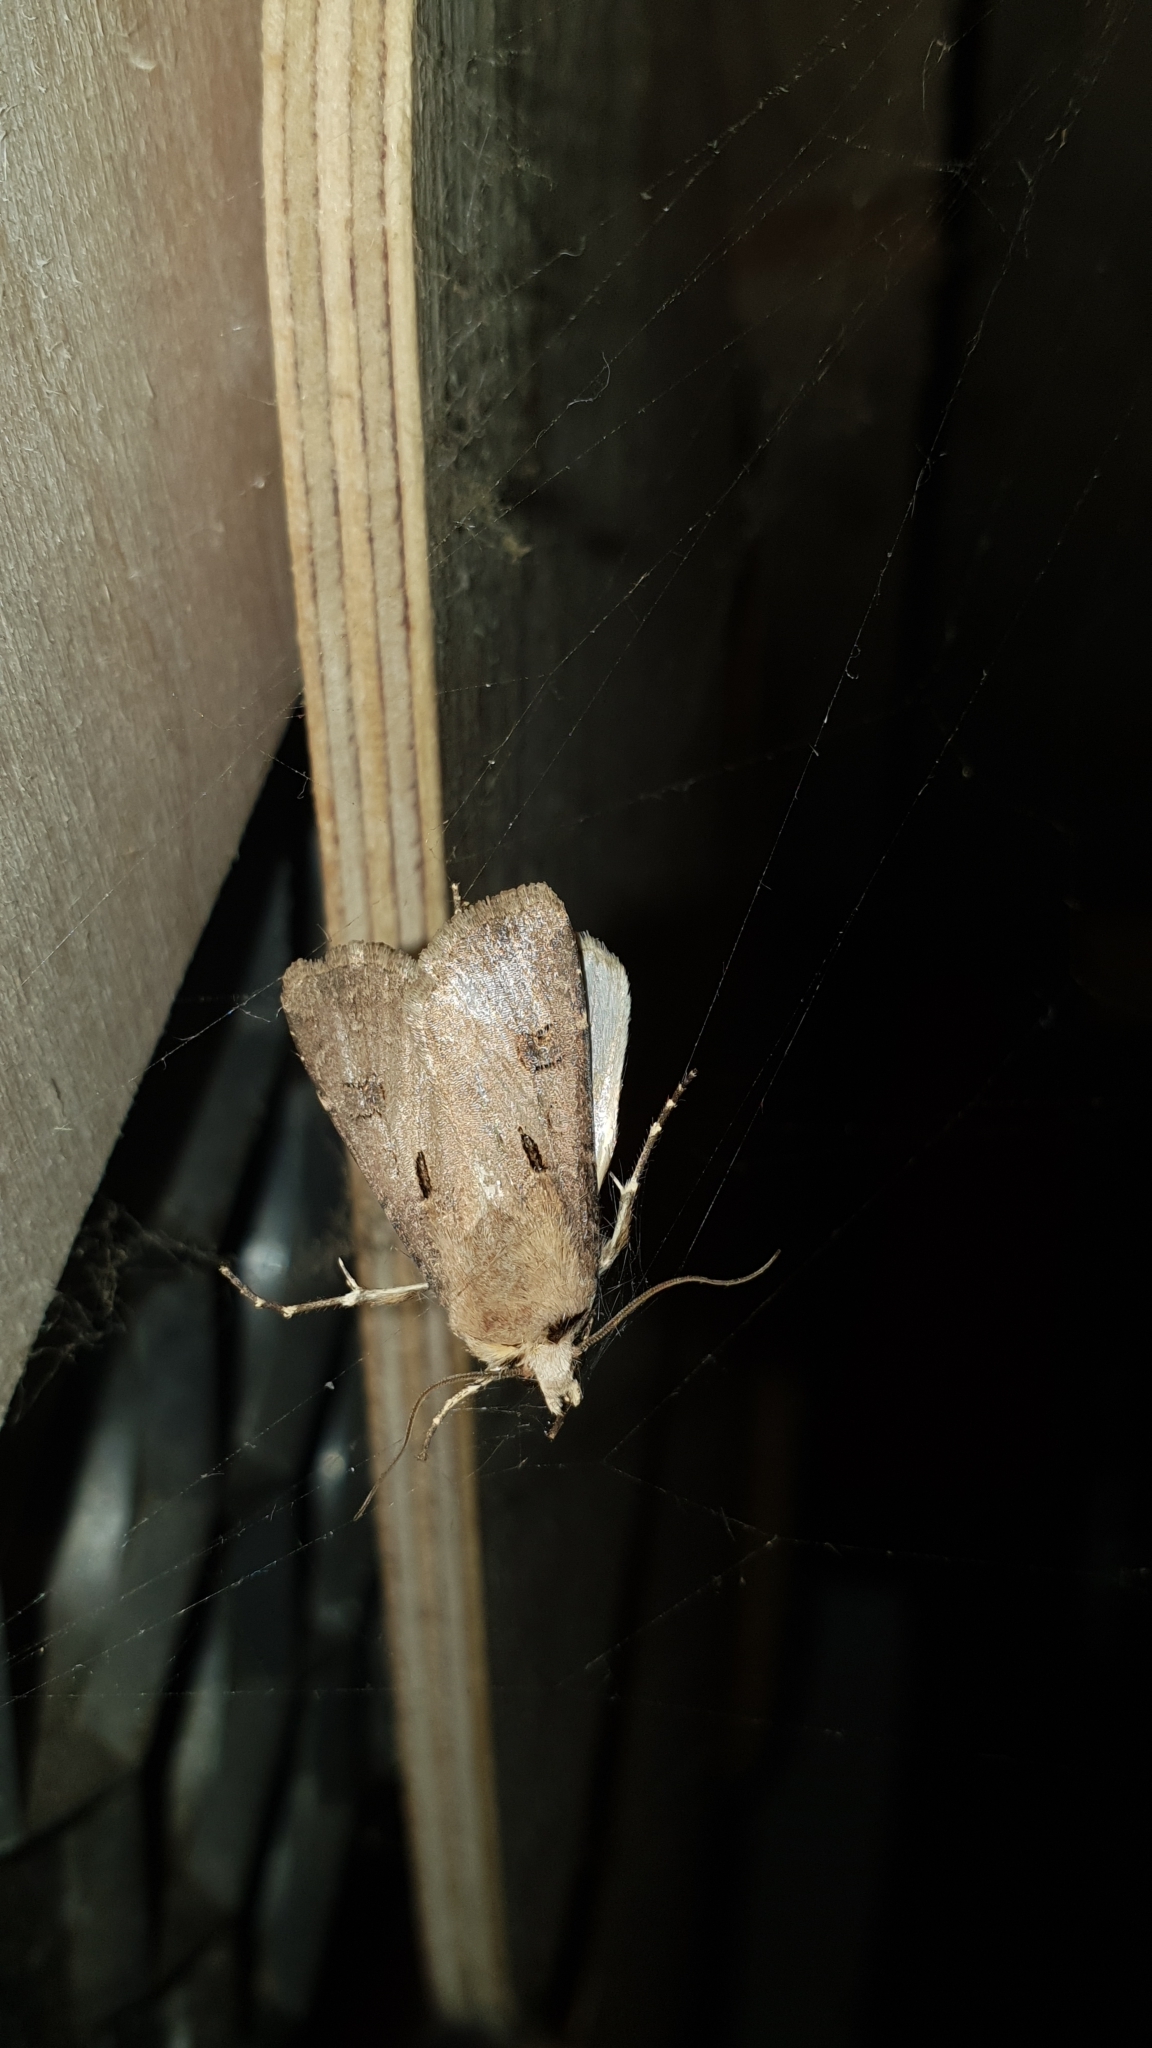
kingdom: Animalia
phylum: Arthropoda
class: Insecta
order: Lepidoptera
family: Noctuidae
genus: Agrotis
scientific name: Agrotis exclamationis
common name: Heart and dart
